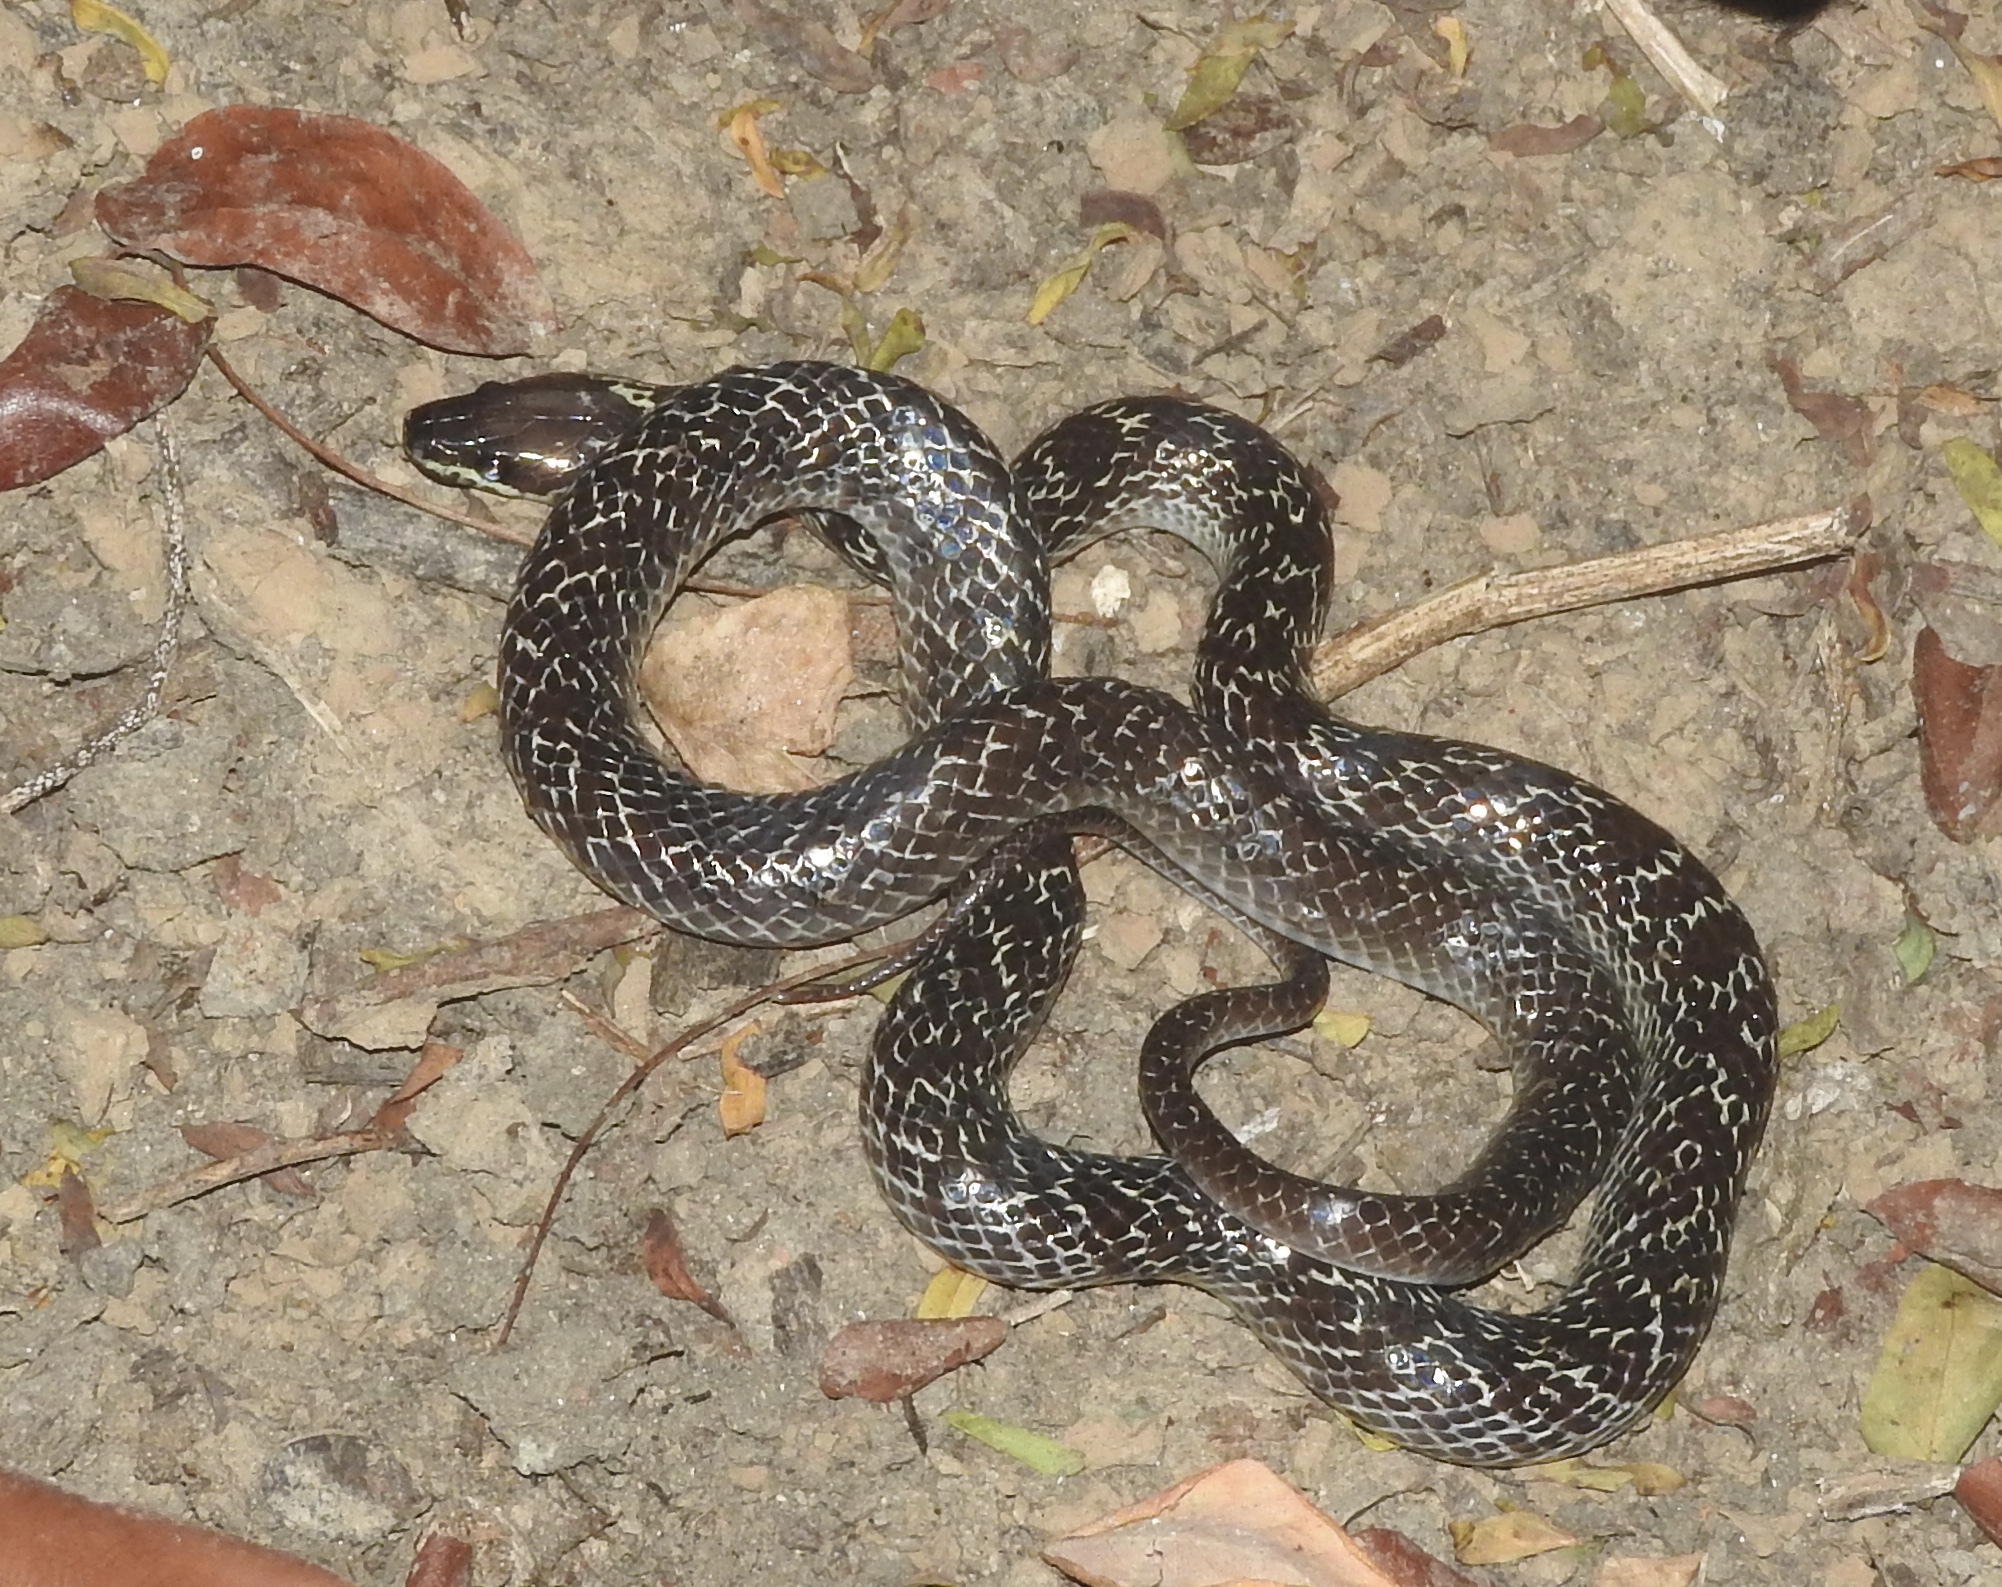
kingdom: Animalia
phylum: Chordata
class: Squamata
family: Colubridae
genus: Lycodon
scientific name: Lycodon capucinus
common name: Common wold snake/house snake
